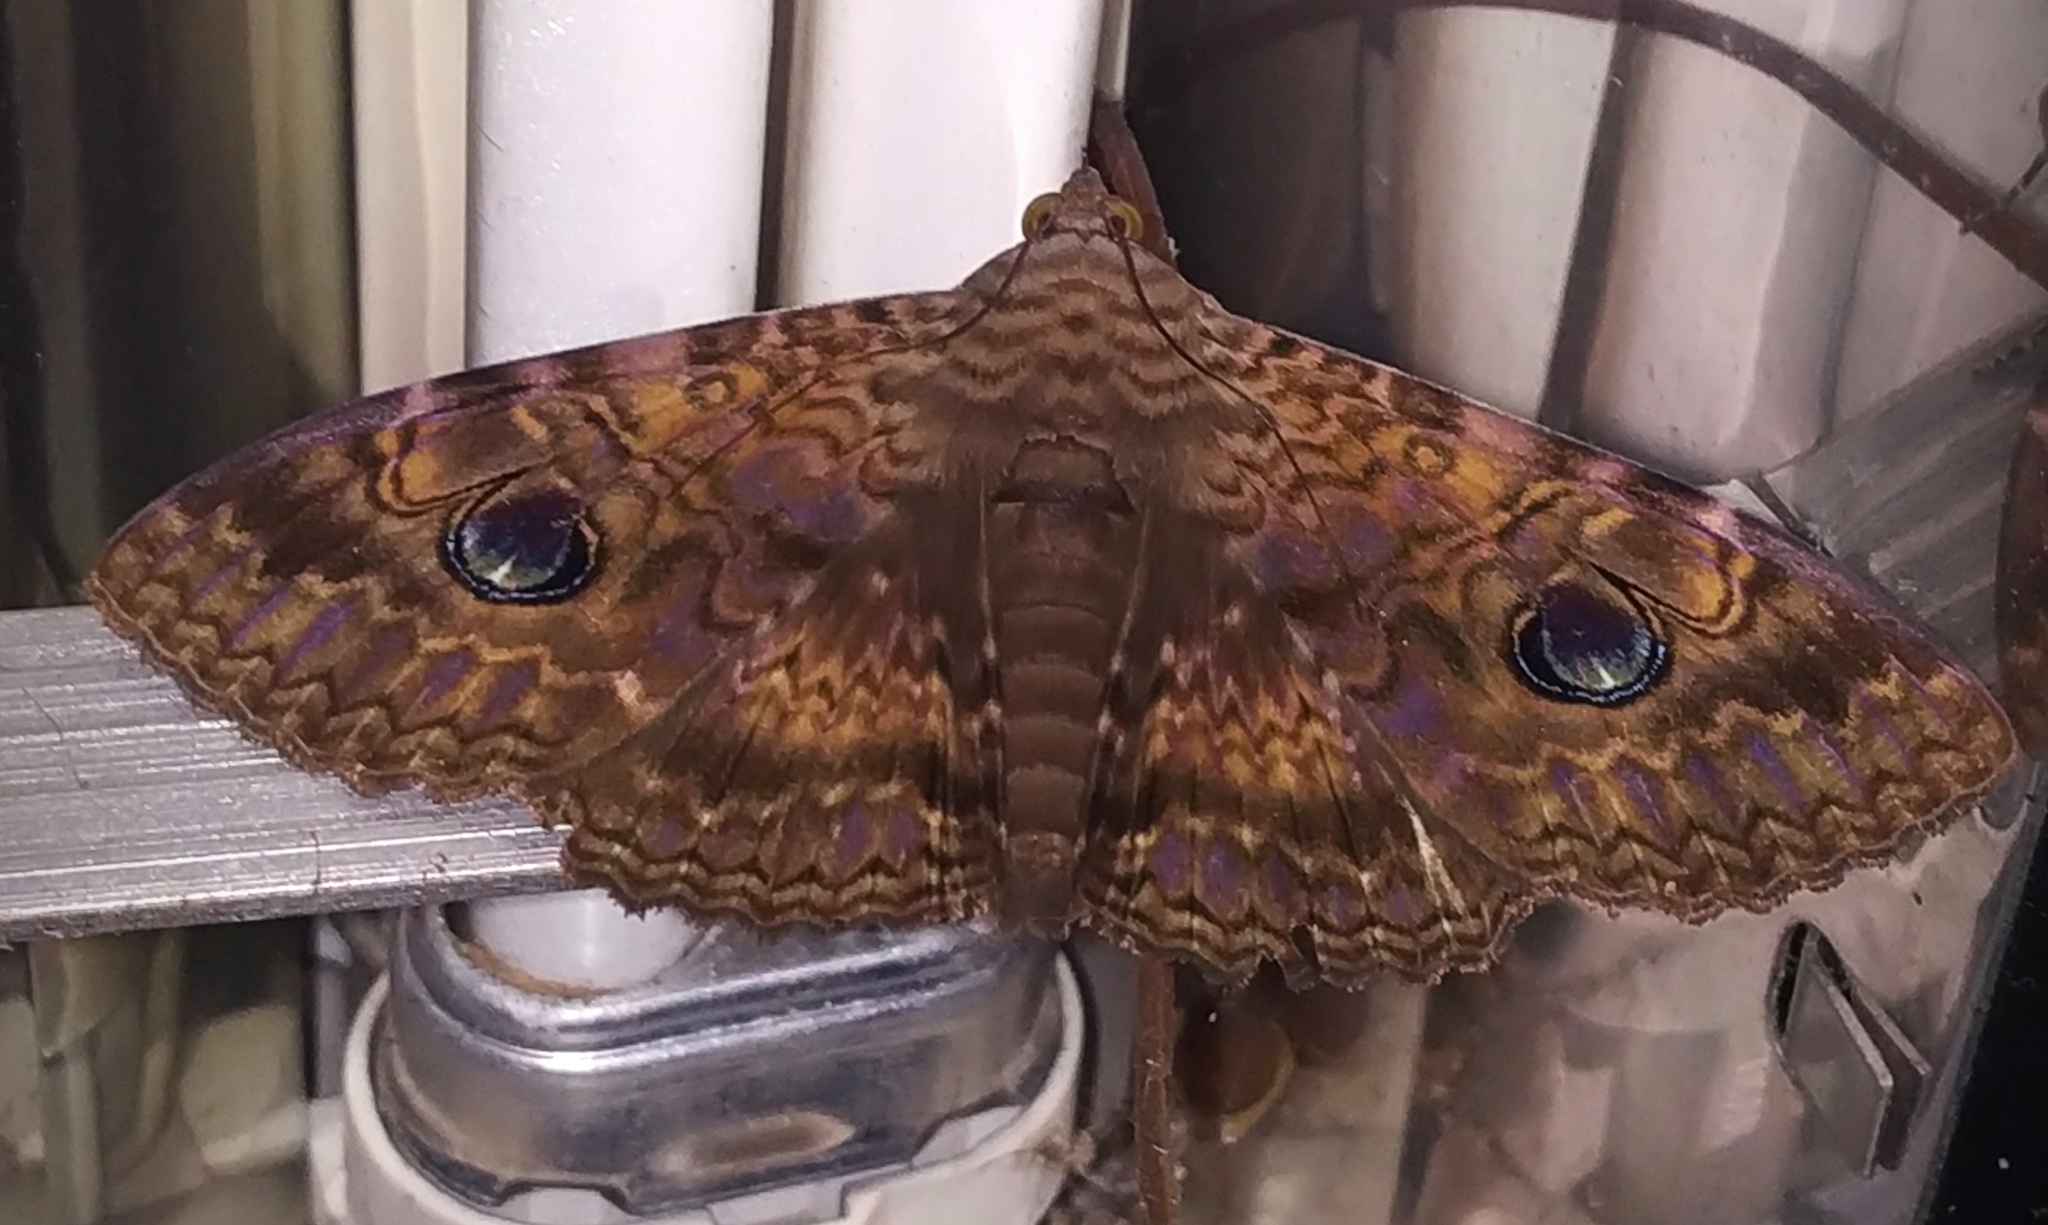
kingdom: Animalia
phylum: Arthropoda
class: Insecta
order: Lepidoptera
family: Erebidae
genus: Speiredonia
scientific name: Speiredonia obscura
